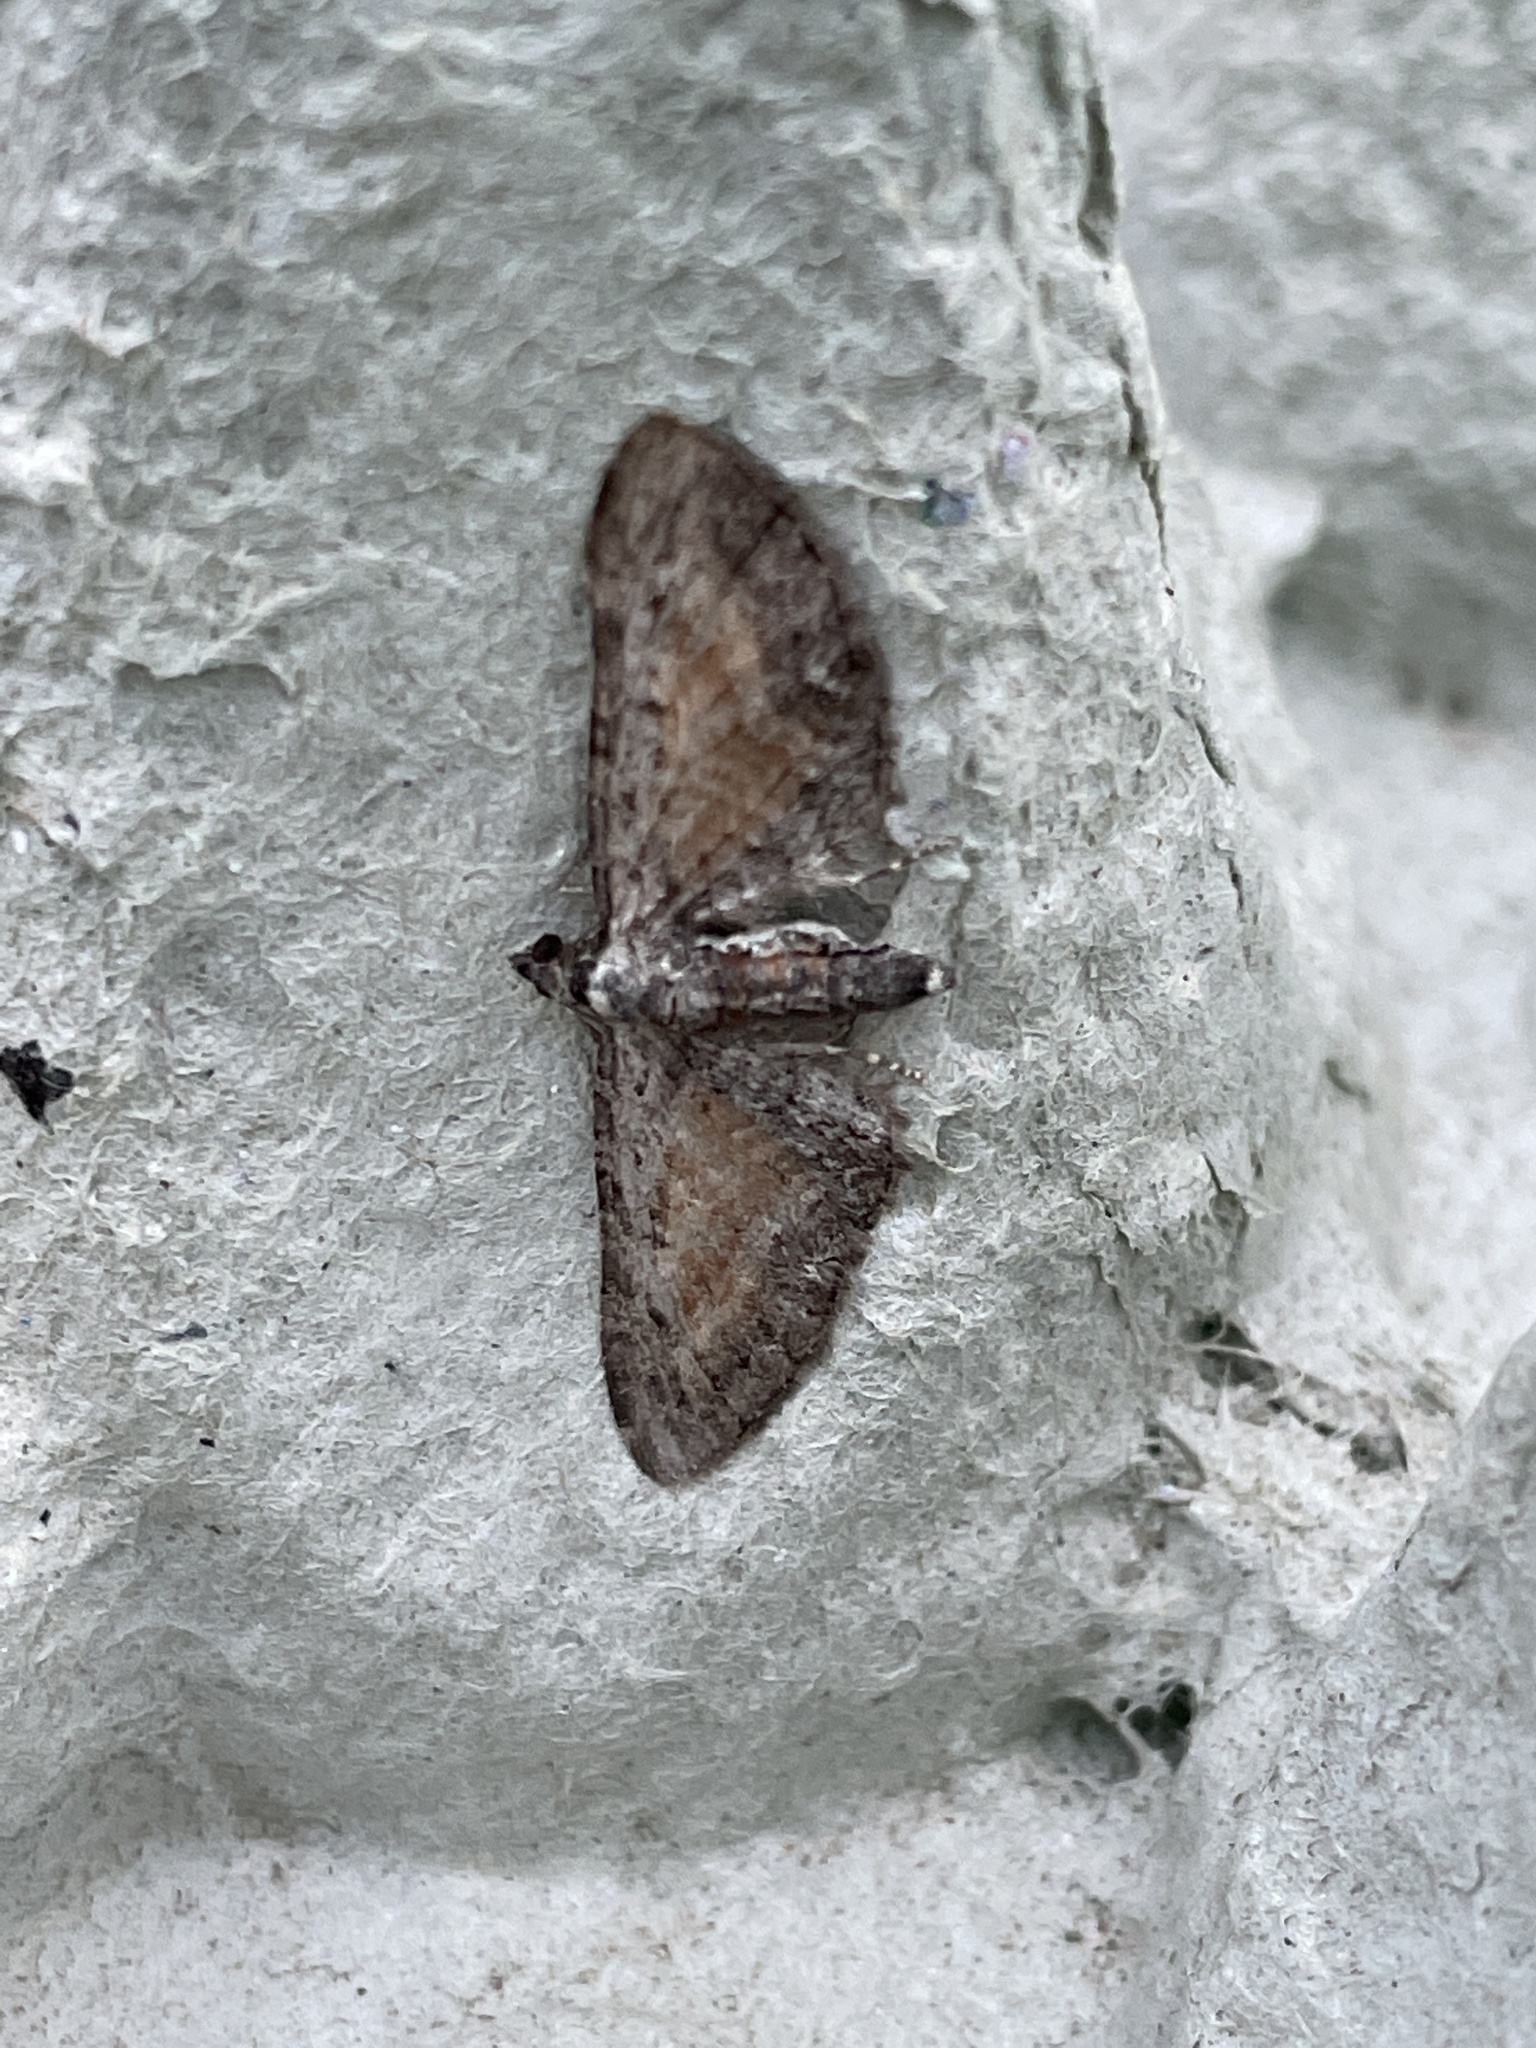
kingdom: Animalia
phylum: Arthropoda
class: Insecta
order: Lepidoptera
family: Geometridae
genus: Eupithecia
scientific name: Eupithecia icterata
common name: Tawny speckled pug
